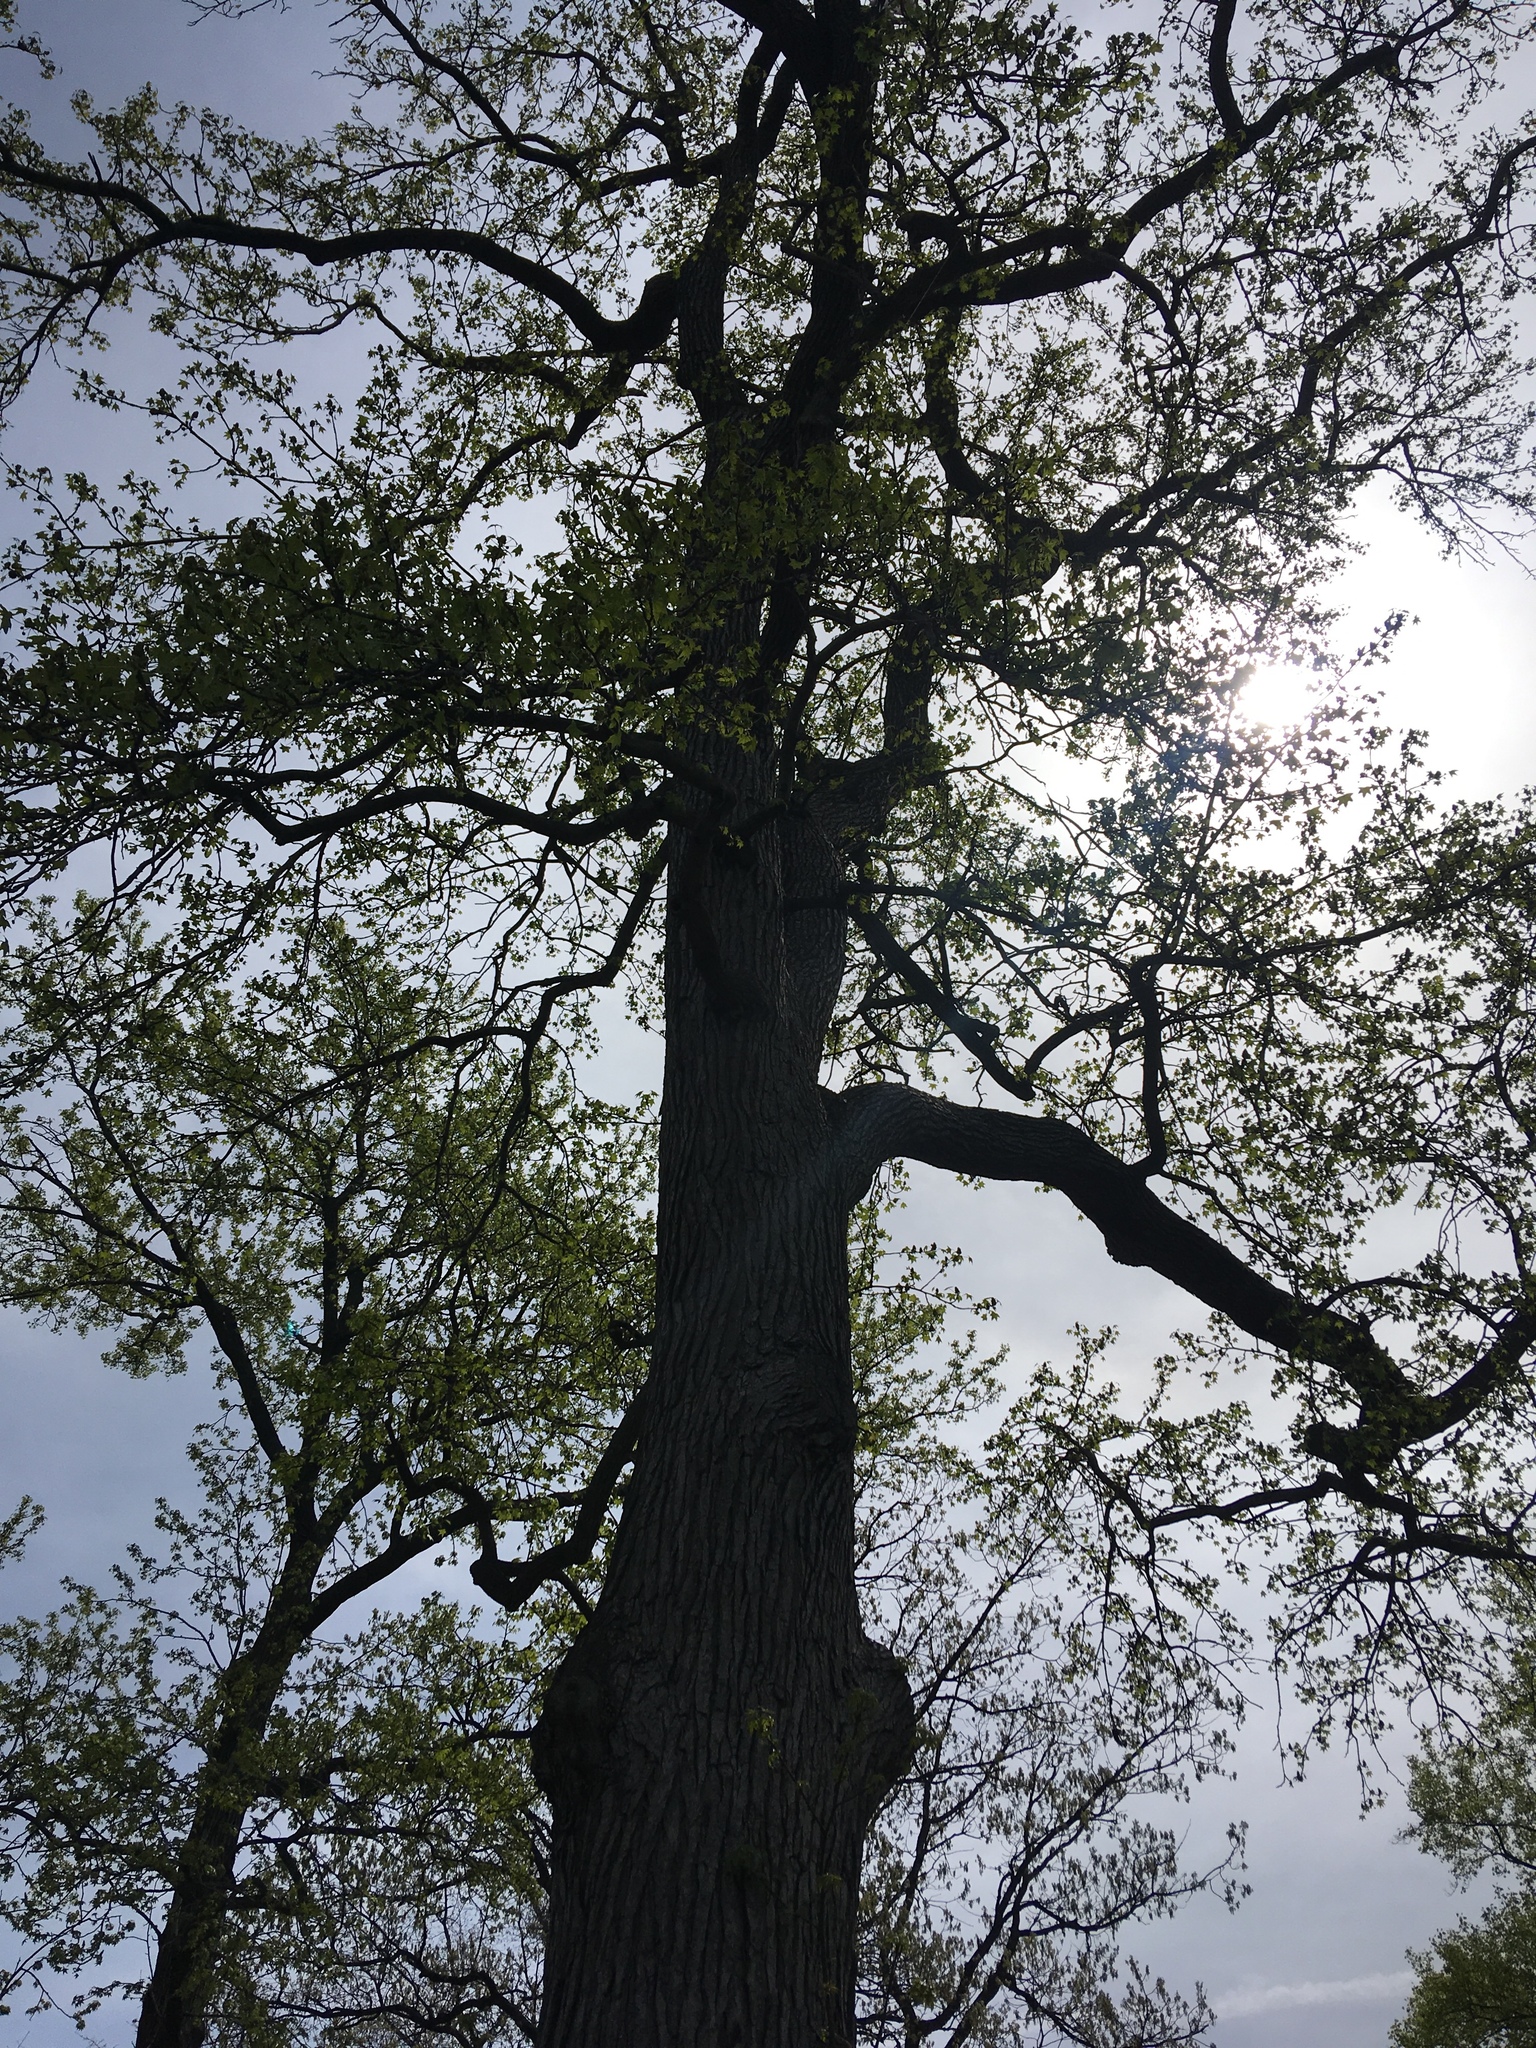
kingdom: Plantae
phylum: Tracheophyta
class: Magnoliopsida
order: Saxifragales
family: Altingiaceae
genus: Liquidambar
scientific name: Liquidambar styraciflua
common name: Sweet gum
